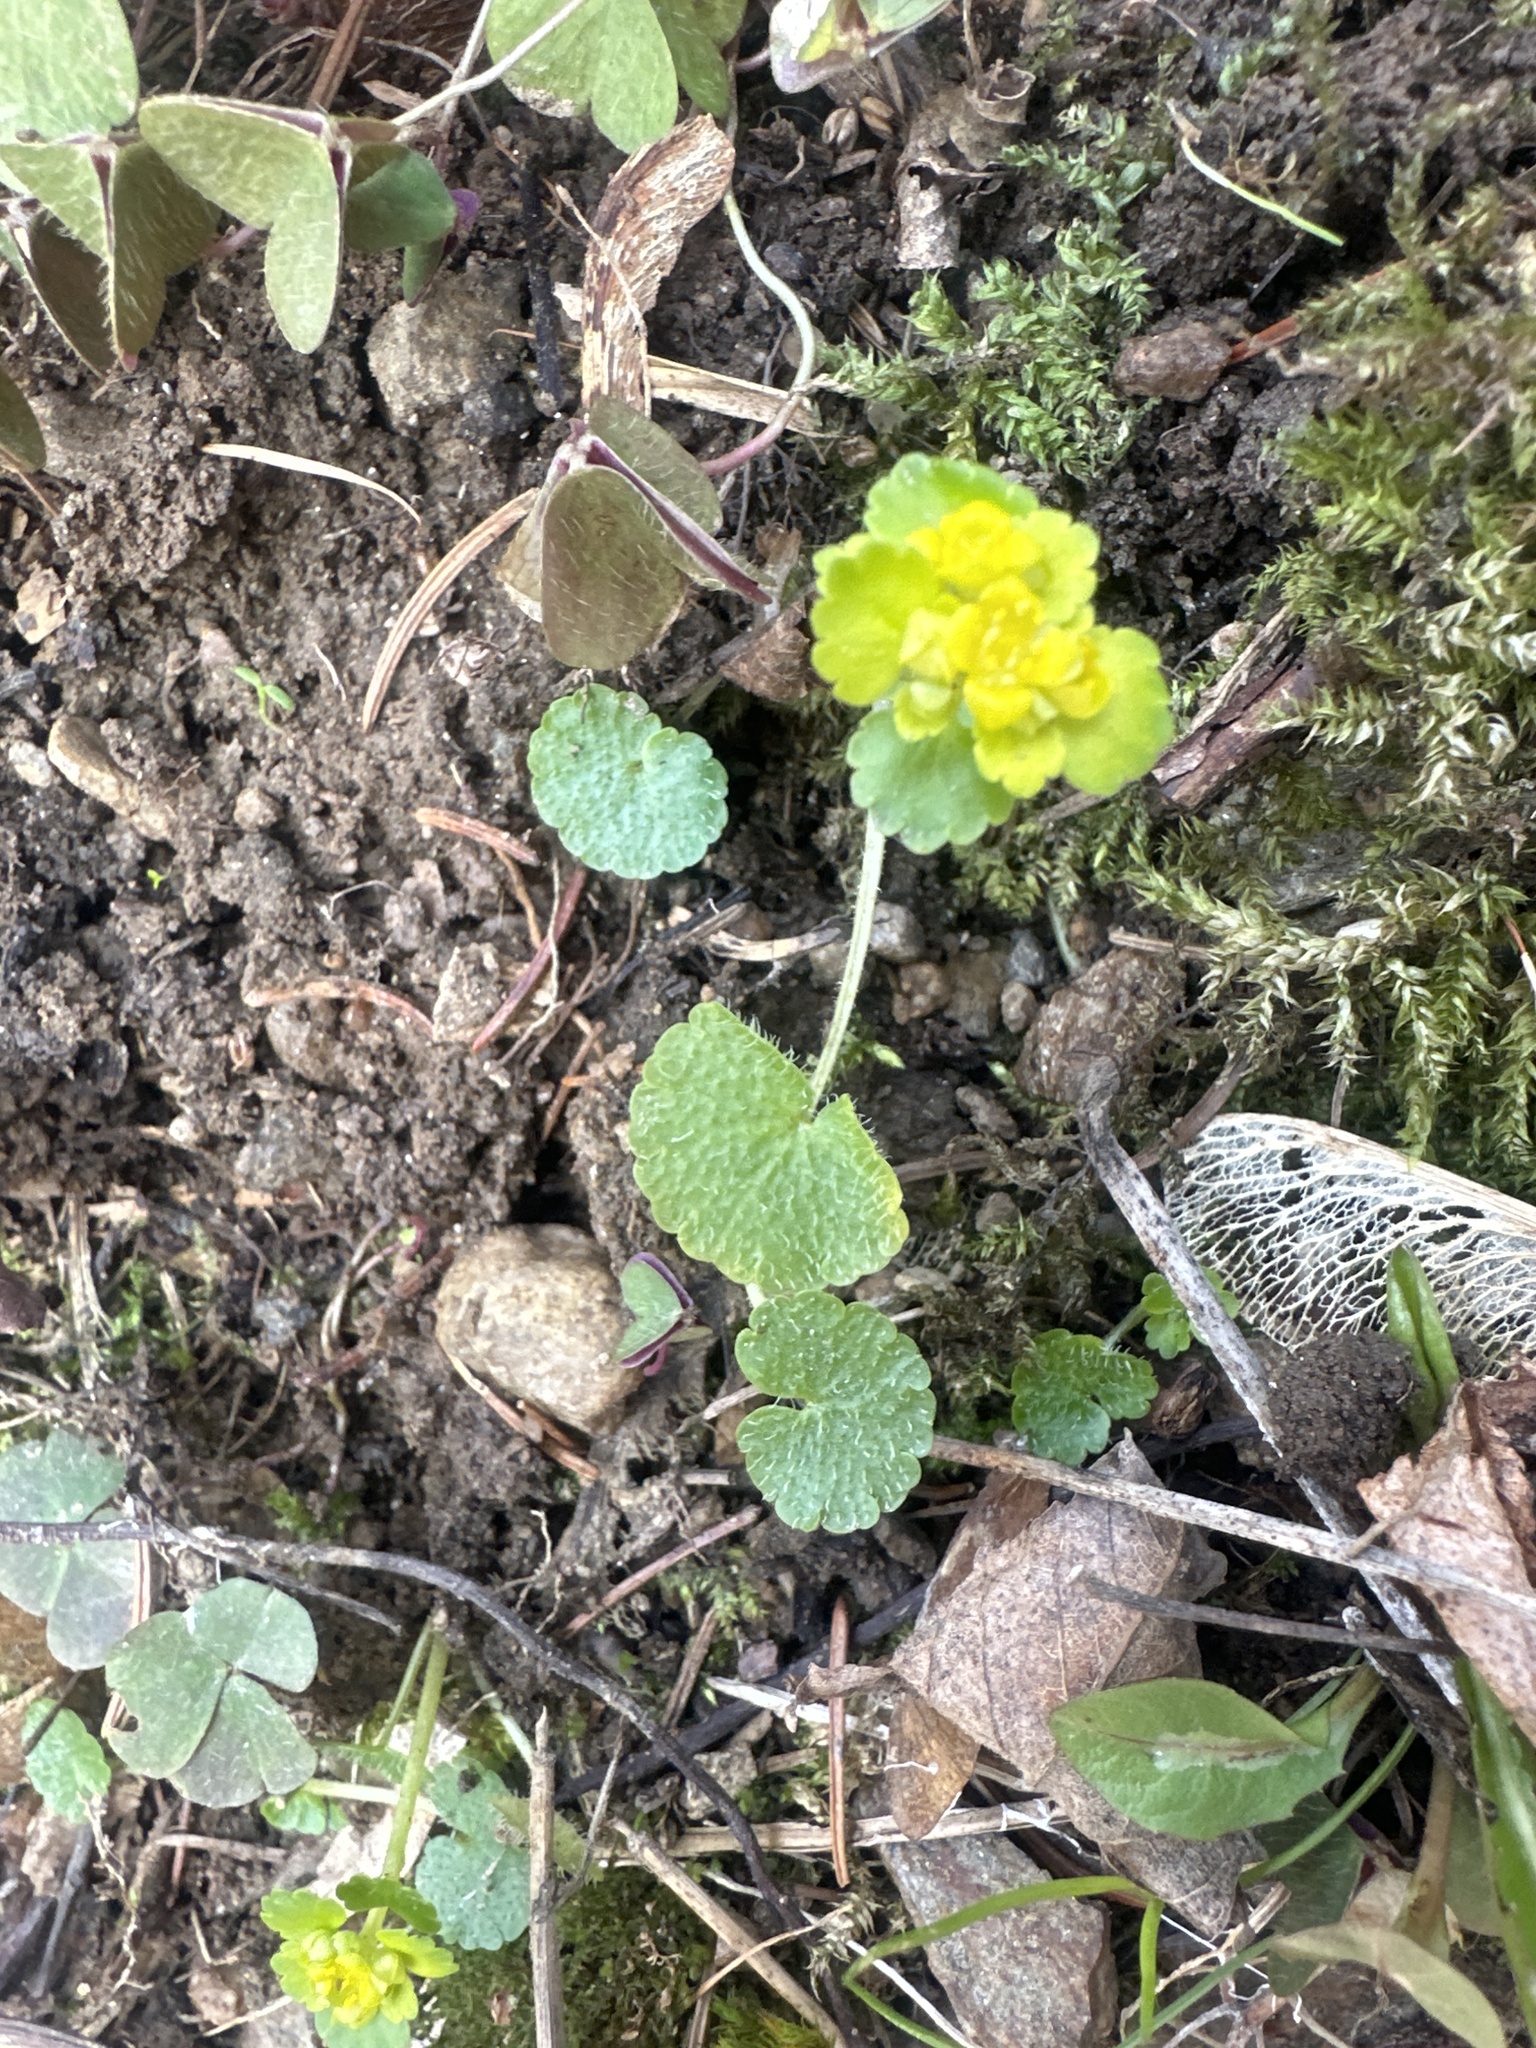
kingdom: Plantae
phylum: Tracheophyta
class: Magnoliopsida
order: Saxifragales
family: Saxifragaceae
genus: Chrysosplenium
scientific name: Chrysosplenium alternifolium
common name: Alternate-leaved golden-saxifrage
